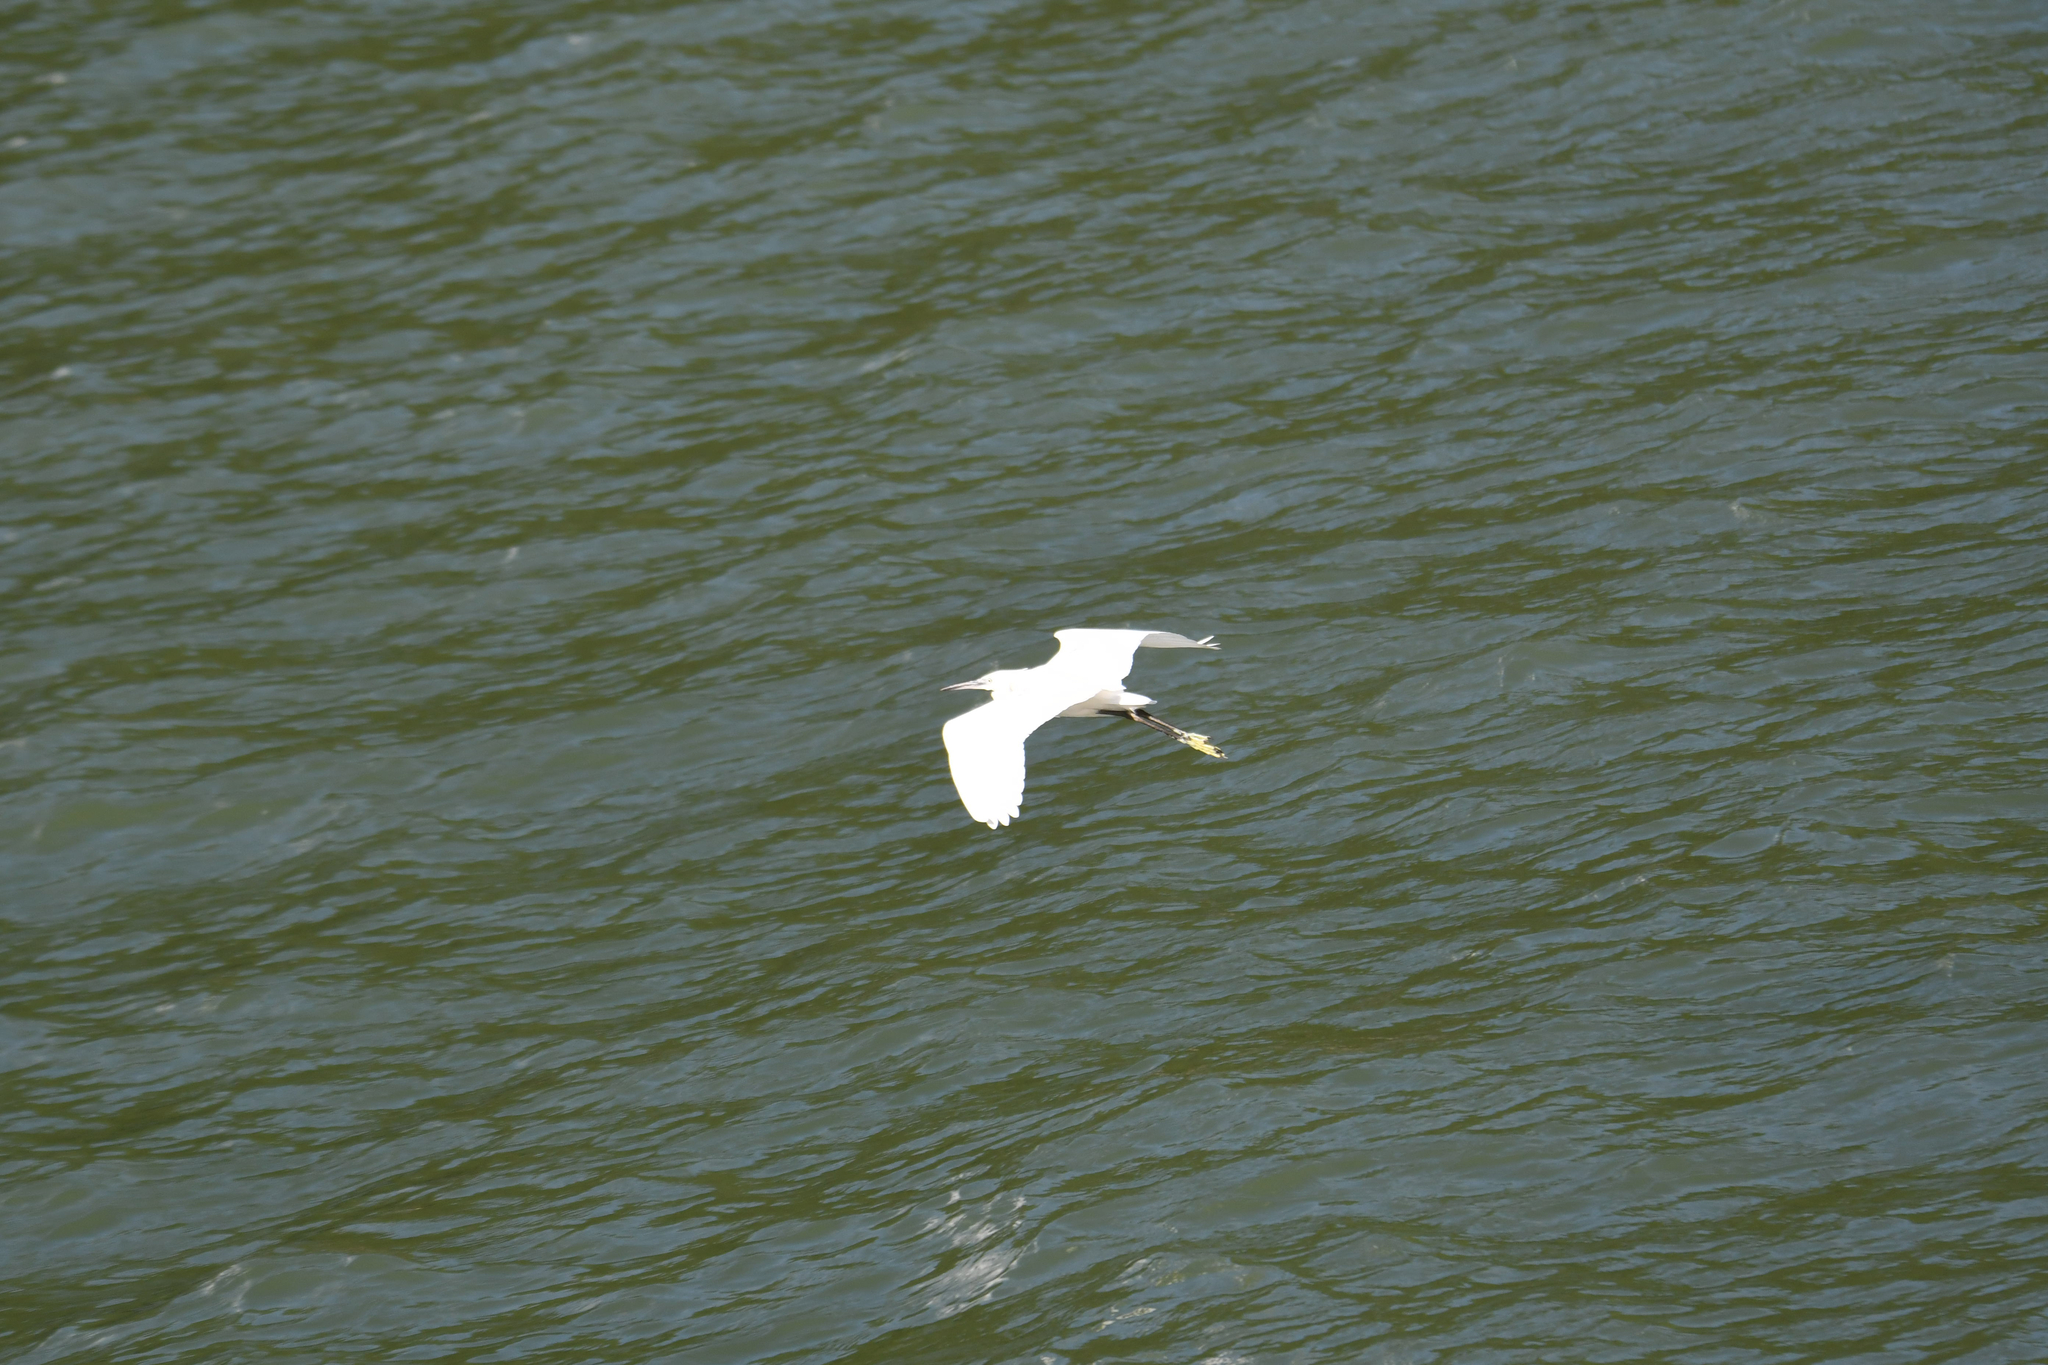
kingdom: Animalia
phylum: Chordata
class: Aves
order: Pelecaniformes
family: Ardeidae
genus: Egretta
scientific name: Egretta garzetta
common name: Little egret
